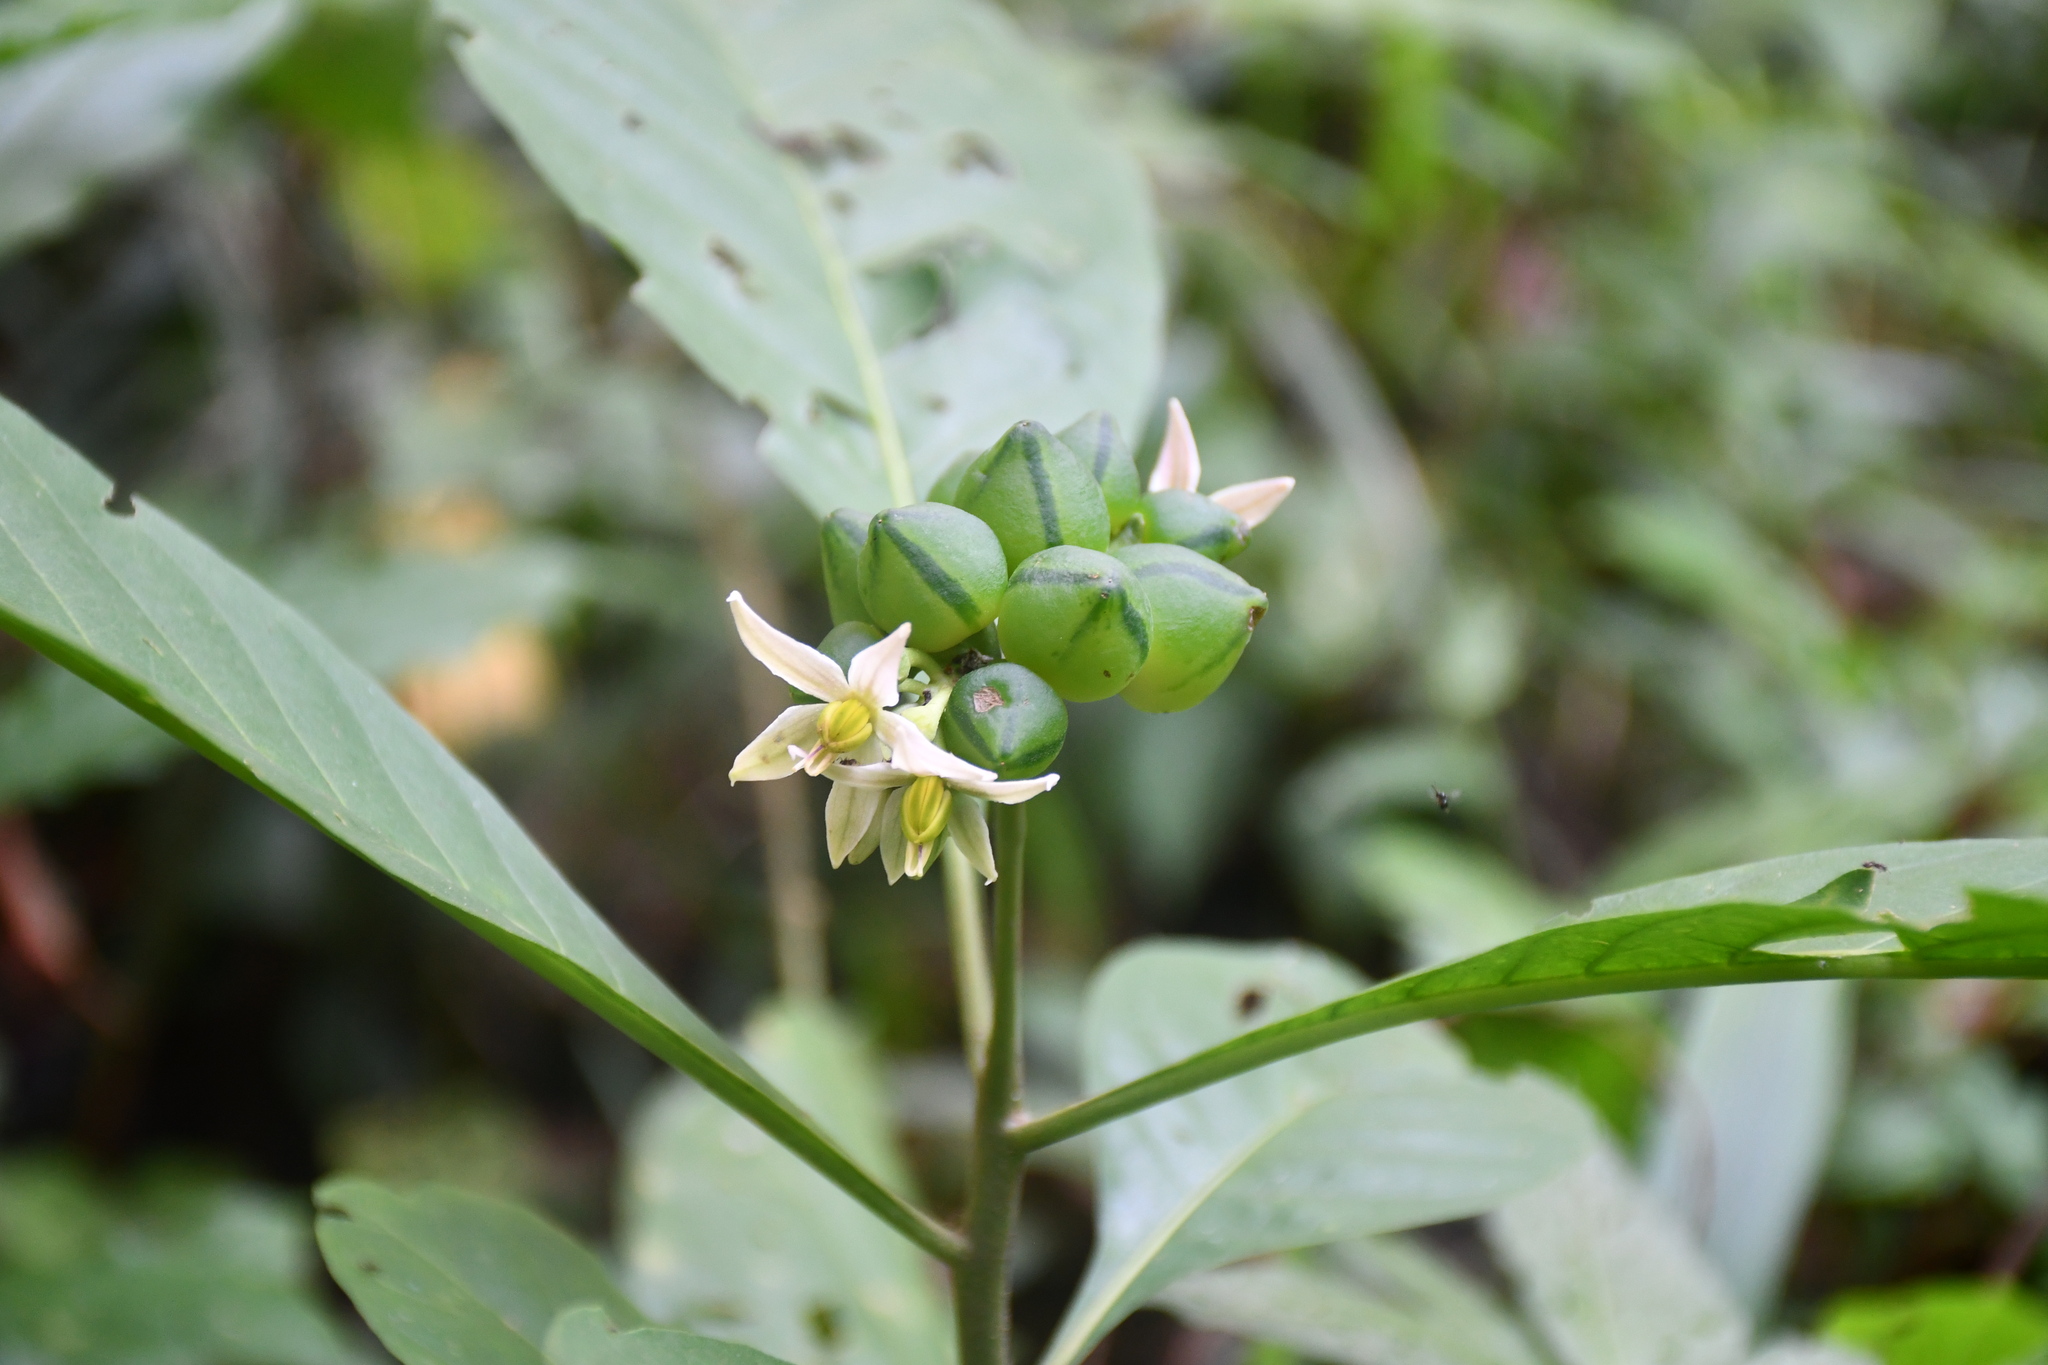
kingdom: Plantae
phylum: Tracheophyta
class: Magnoliopsida
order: Solanales
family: Solanaceae
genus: Solanum
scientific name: Solanum thelopodium
